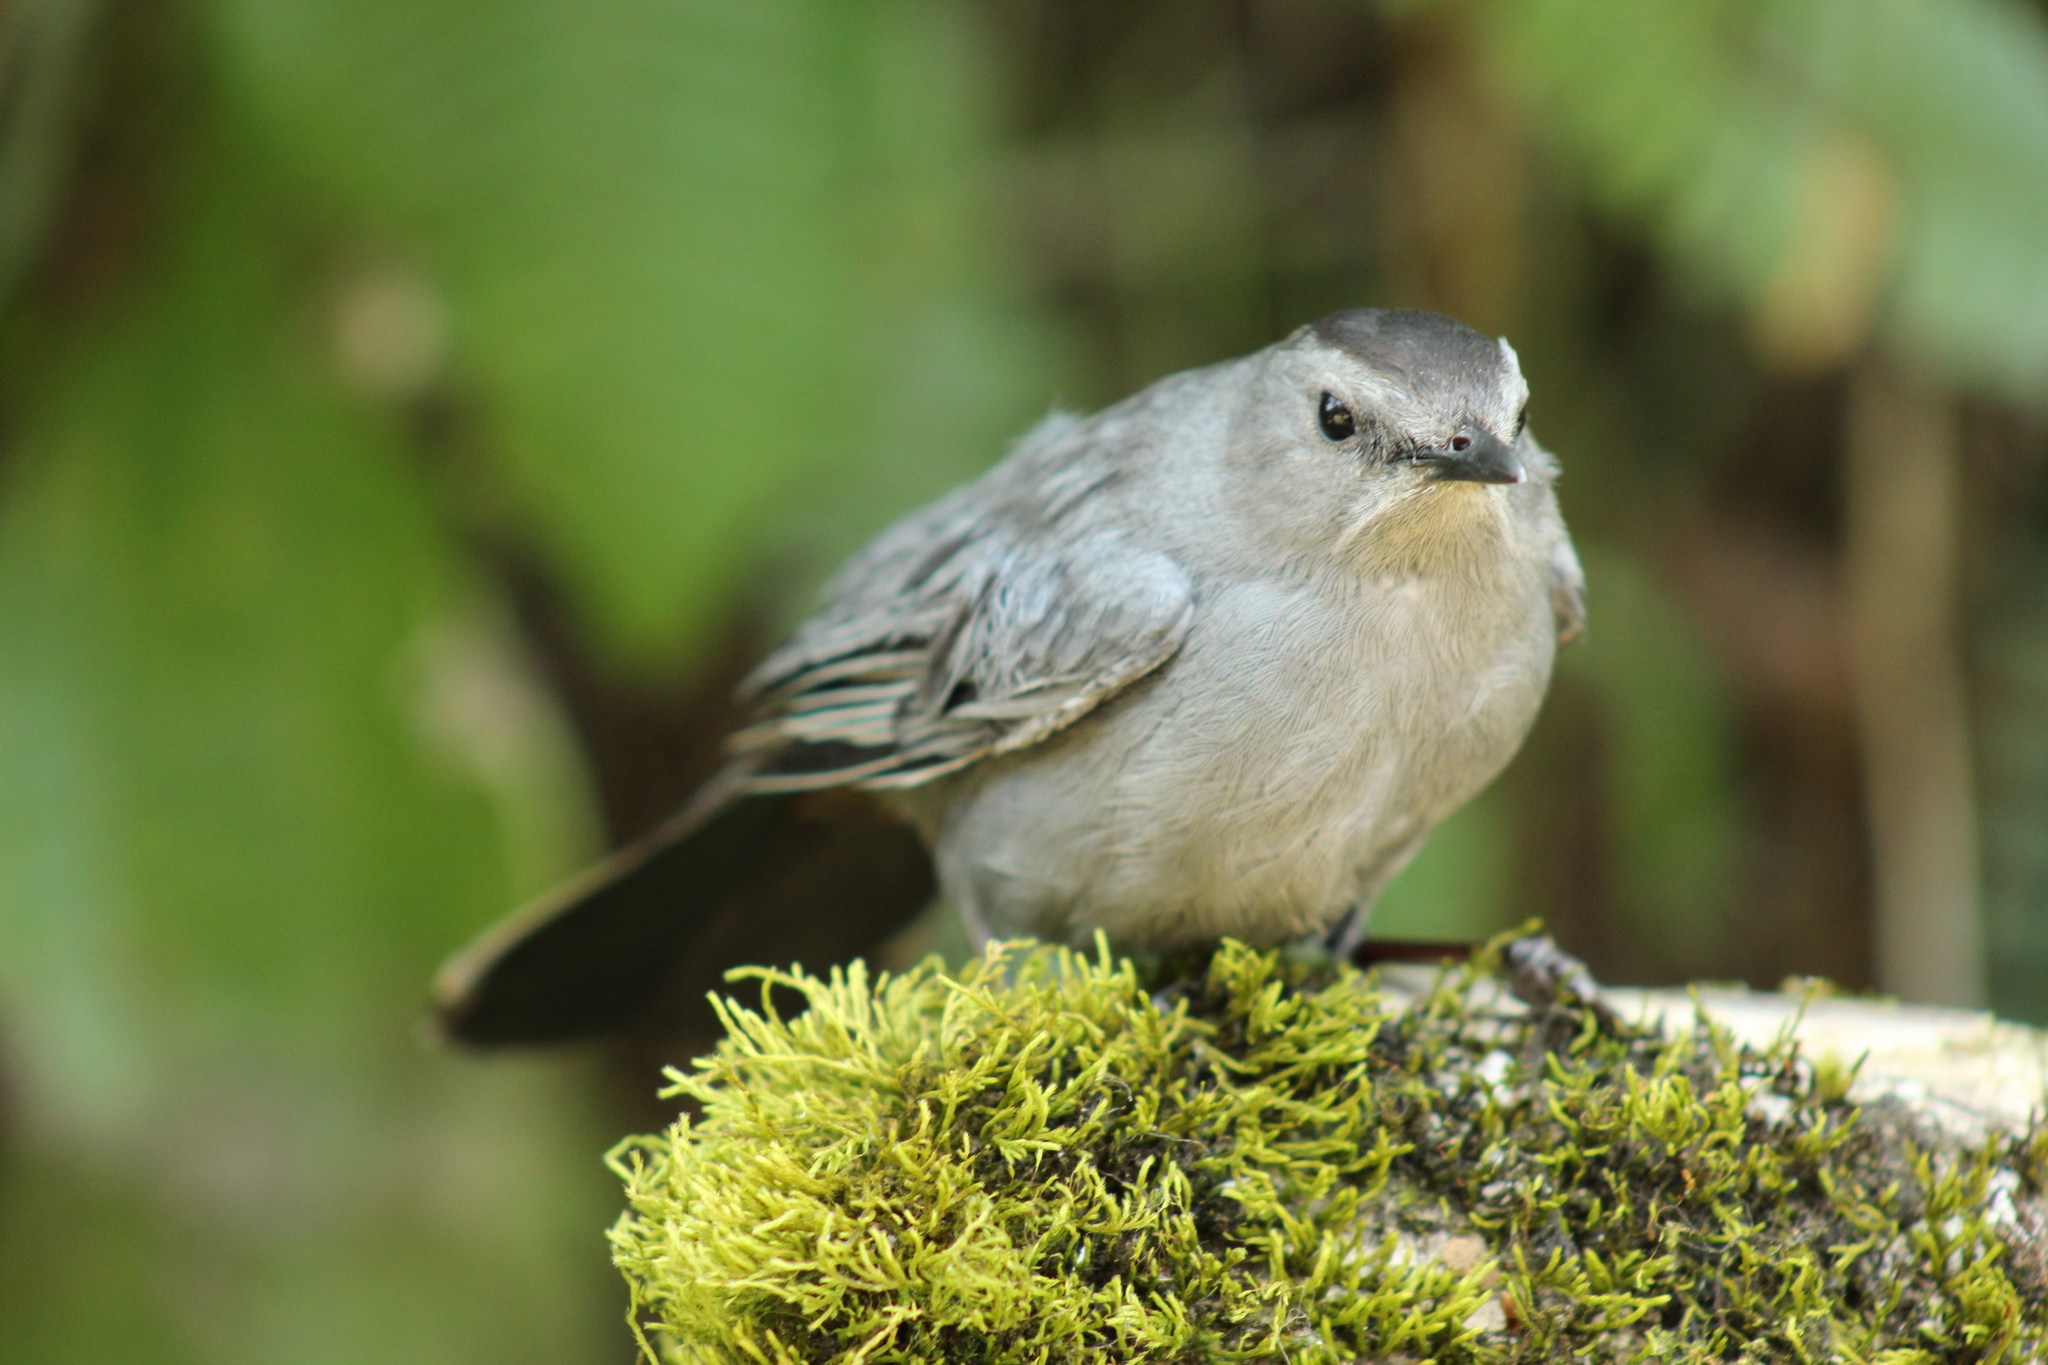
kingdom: Animalia
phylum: Chordata
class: Aves
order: Passeriformes
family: Mimidae
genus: Dumetella
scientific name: Dumetella carolinensis
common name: Gray catbird
